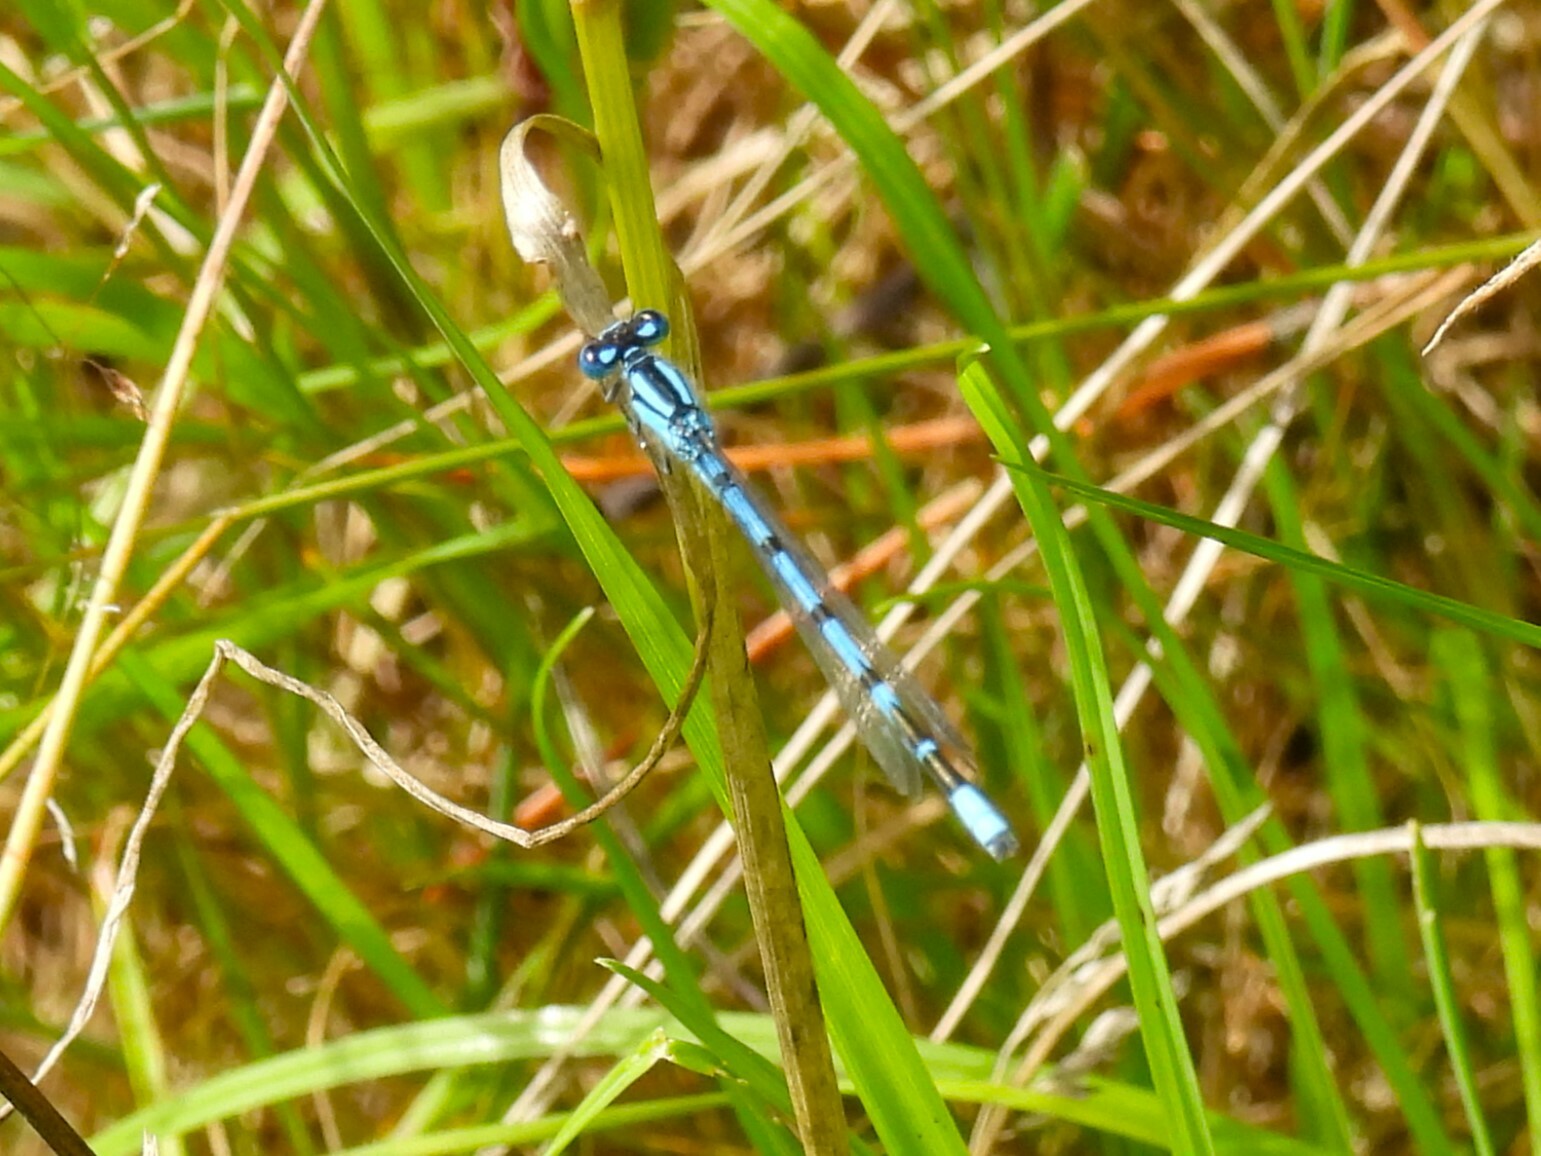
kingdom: Animalia
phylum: Arthropoda
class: Insecta
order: Odonata
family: Coenagrionidae
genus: Enallagma
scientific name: Enallagma cyathigerum
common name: Common blue damselfly
